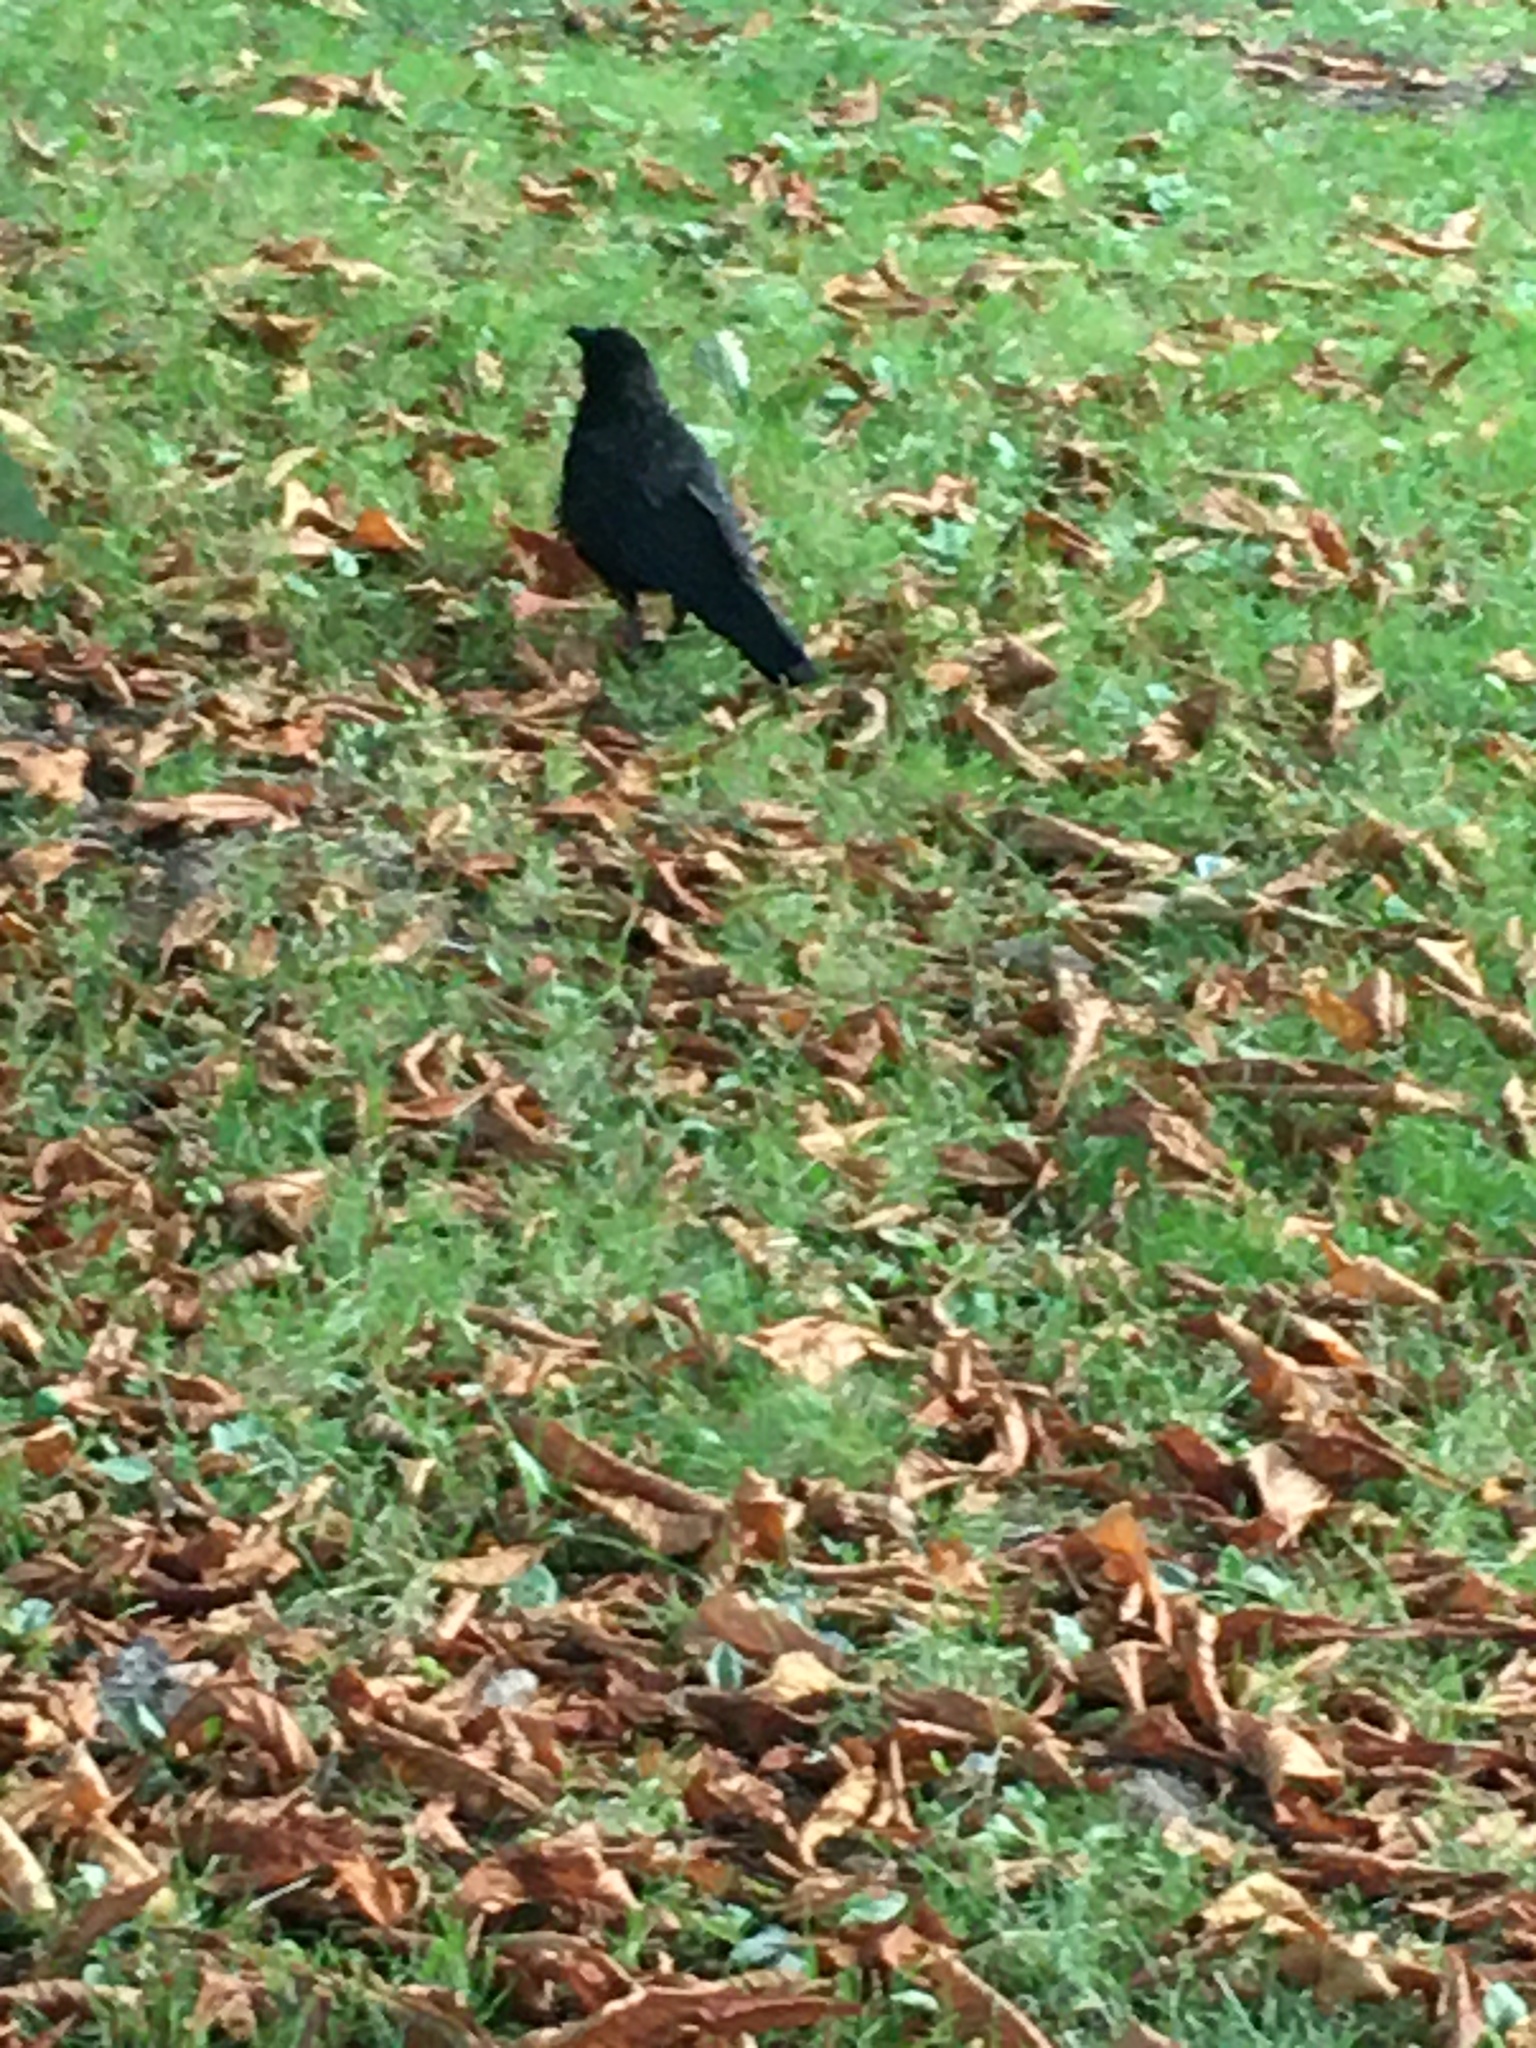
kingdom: Animalia
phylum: Chordata
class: Aves
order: Passeriformes
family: Corvidae
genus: Corvus
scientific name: Corvus brachyrhynchos
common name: American crow
